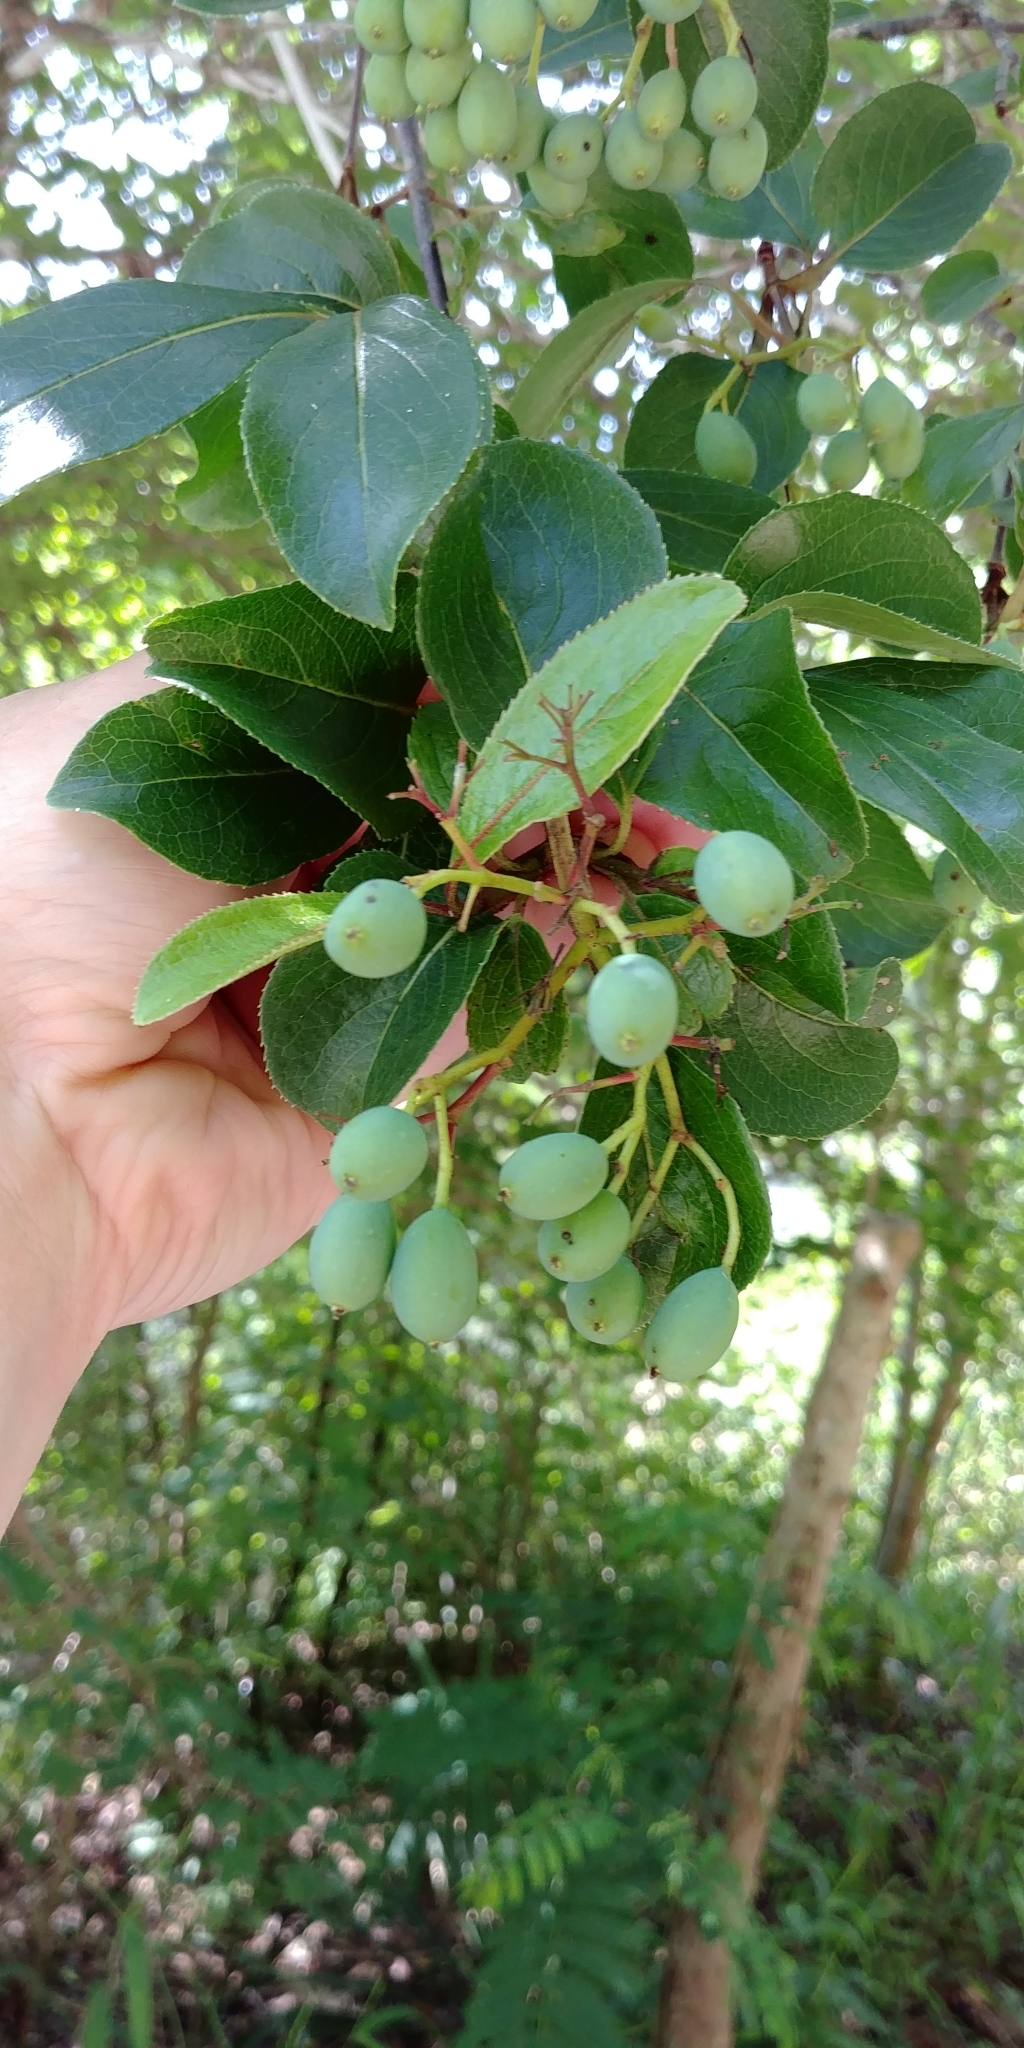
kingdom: Plantae
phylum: Tracheophyta
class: Magnoliopsida
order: Dipsacales
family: Viburnaceae
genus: Viburnum
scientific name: Viburnum rufidulum
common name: Blue haw
